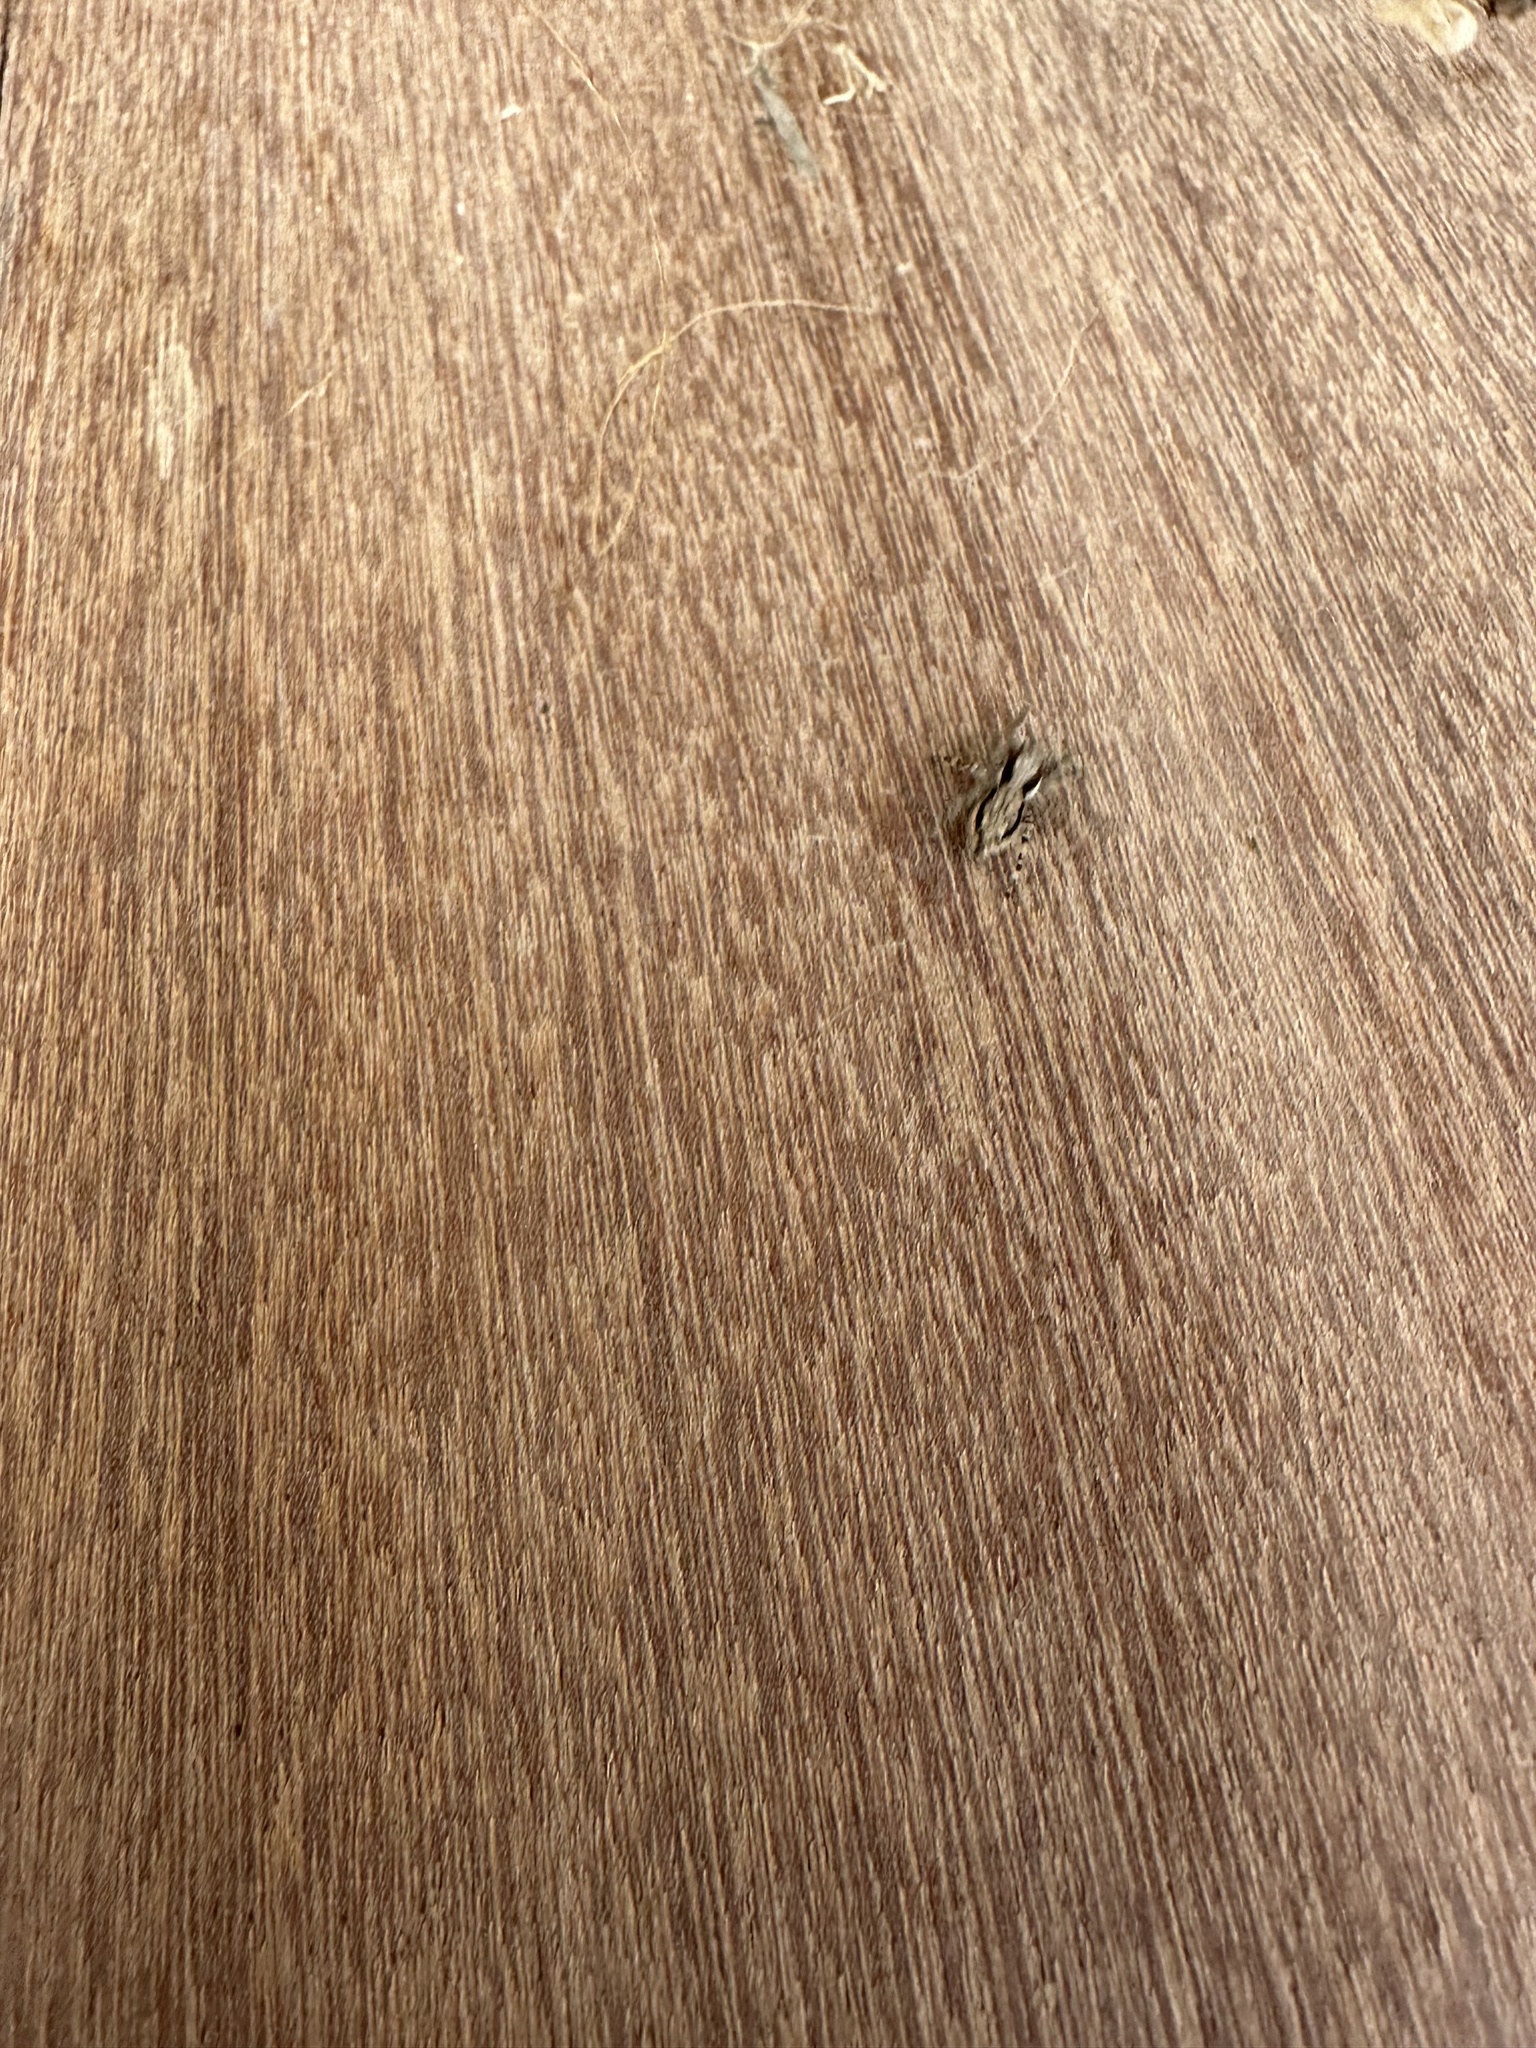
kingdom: Animalia
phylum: Arthropoda
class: Arachnida
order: Araneae
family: Salticidae
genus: Menemerus
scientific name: Menemerus bivittatus
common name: Gray wall jumper
